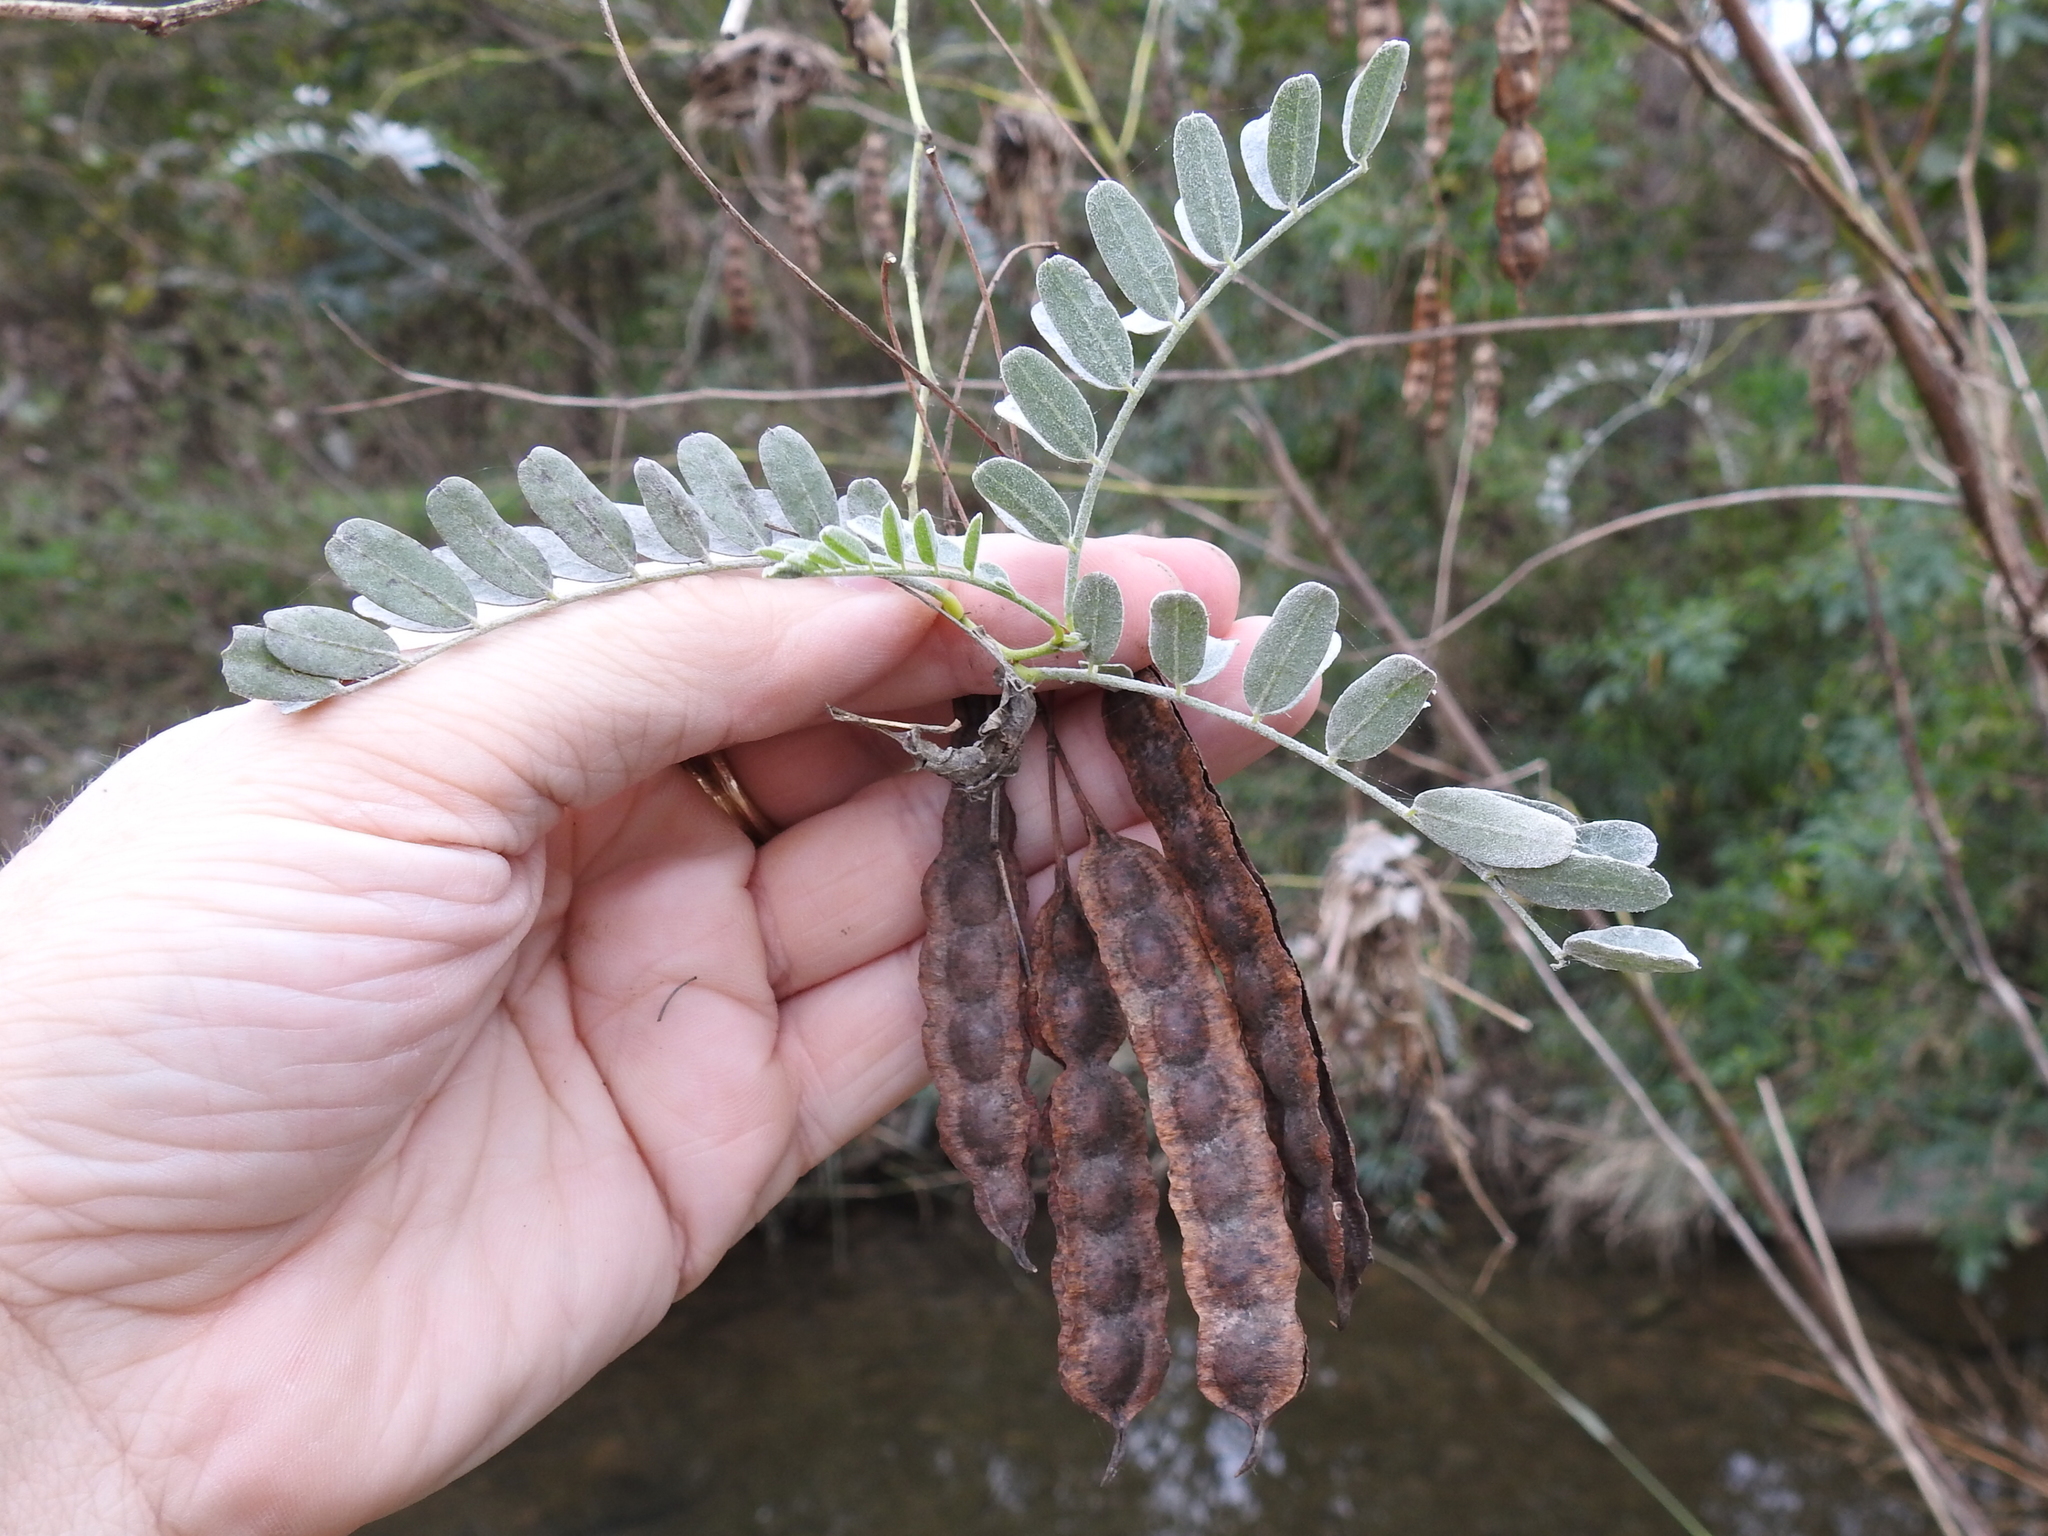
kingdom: Plantae
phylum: Tracheophyta
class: Magnoliopsida
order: Fabales
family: Fabaceae
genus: Sesbania
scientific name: Sesbania drummondii
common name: Poison-bean
